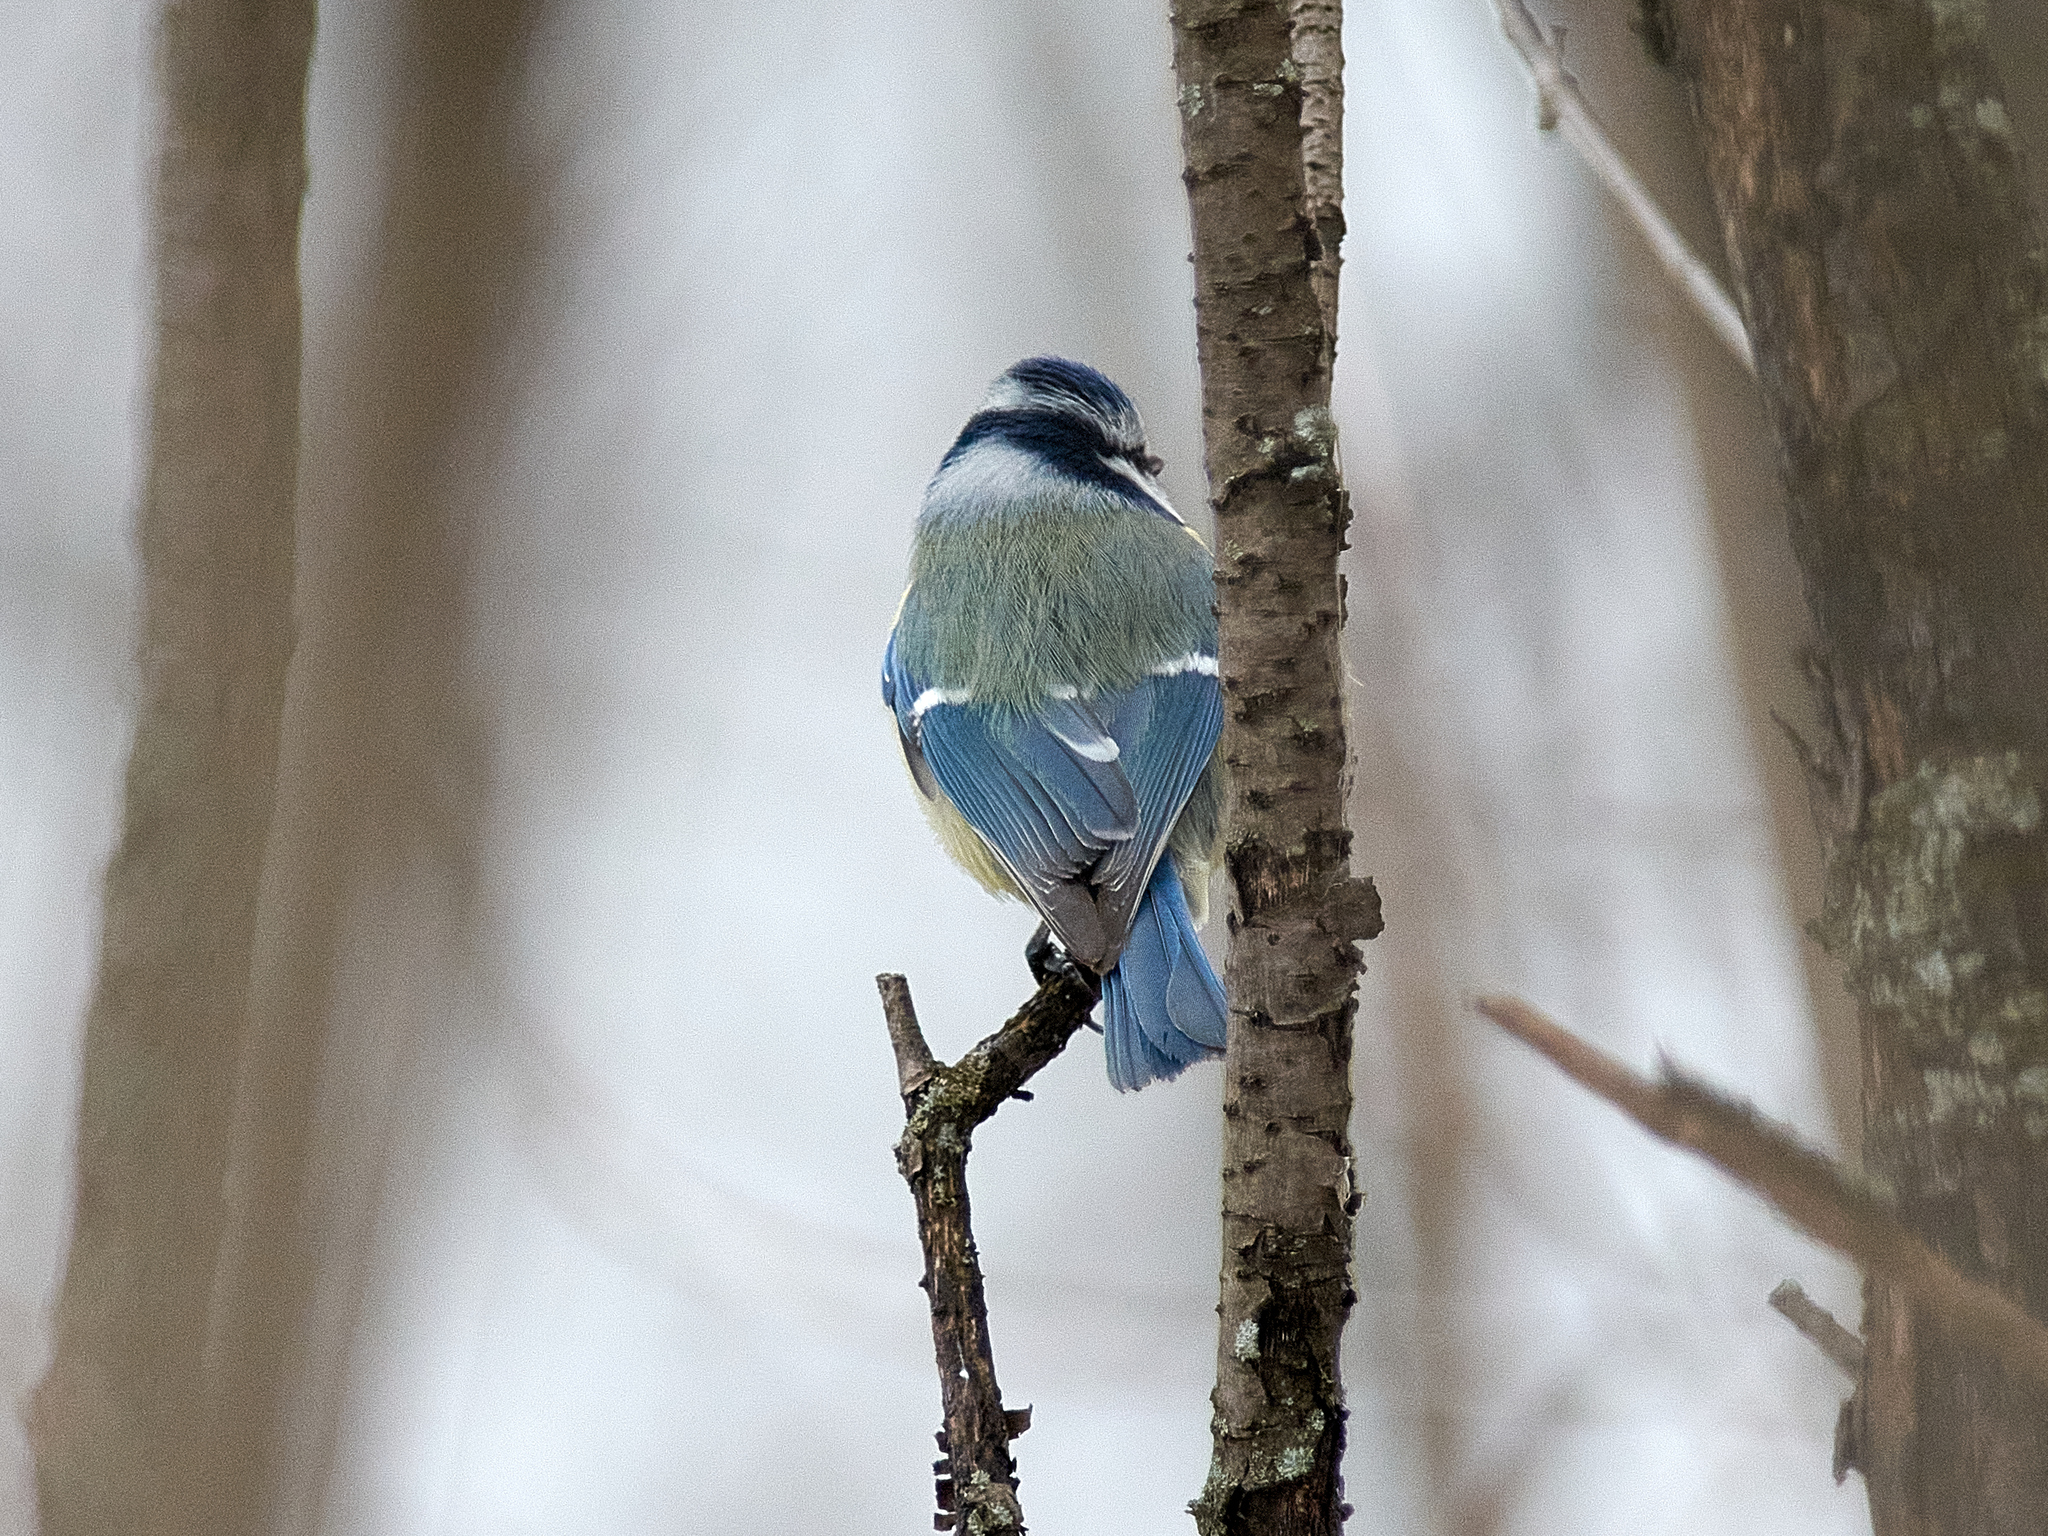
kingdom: Animalia
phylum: Chordata
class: Aves
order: Passeriformes
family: Paridae
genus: Cyanistes
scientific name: Cyanistes caeruleus
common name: Eurasian blue tit
